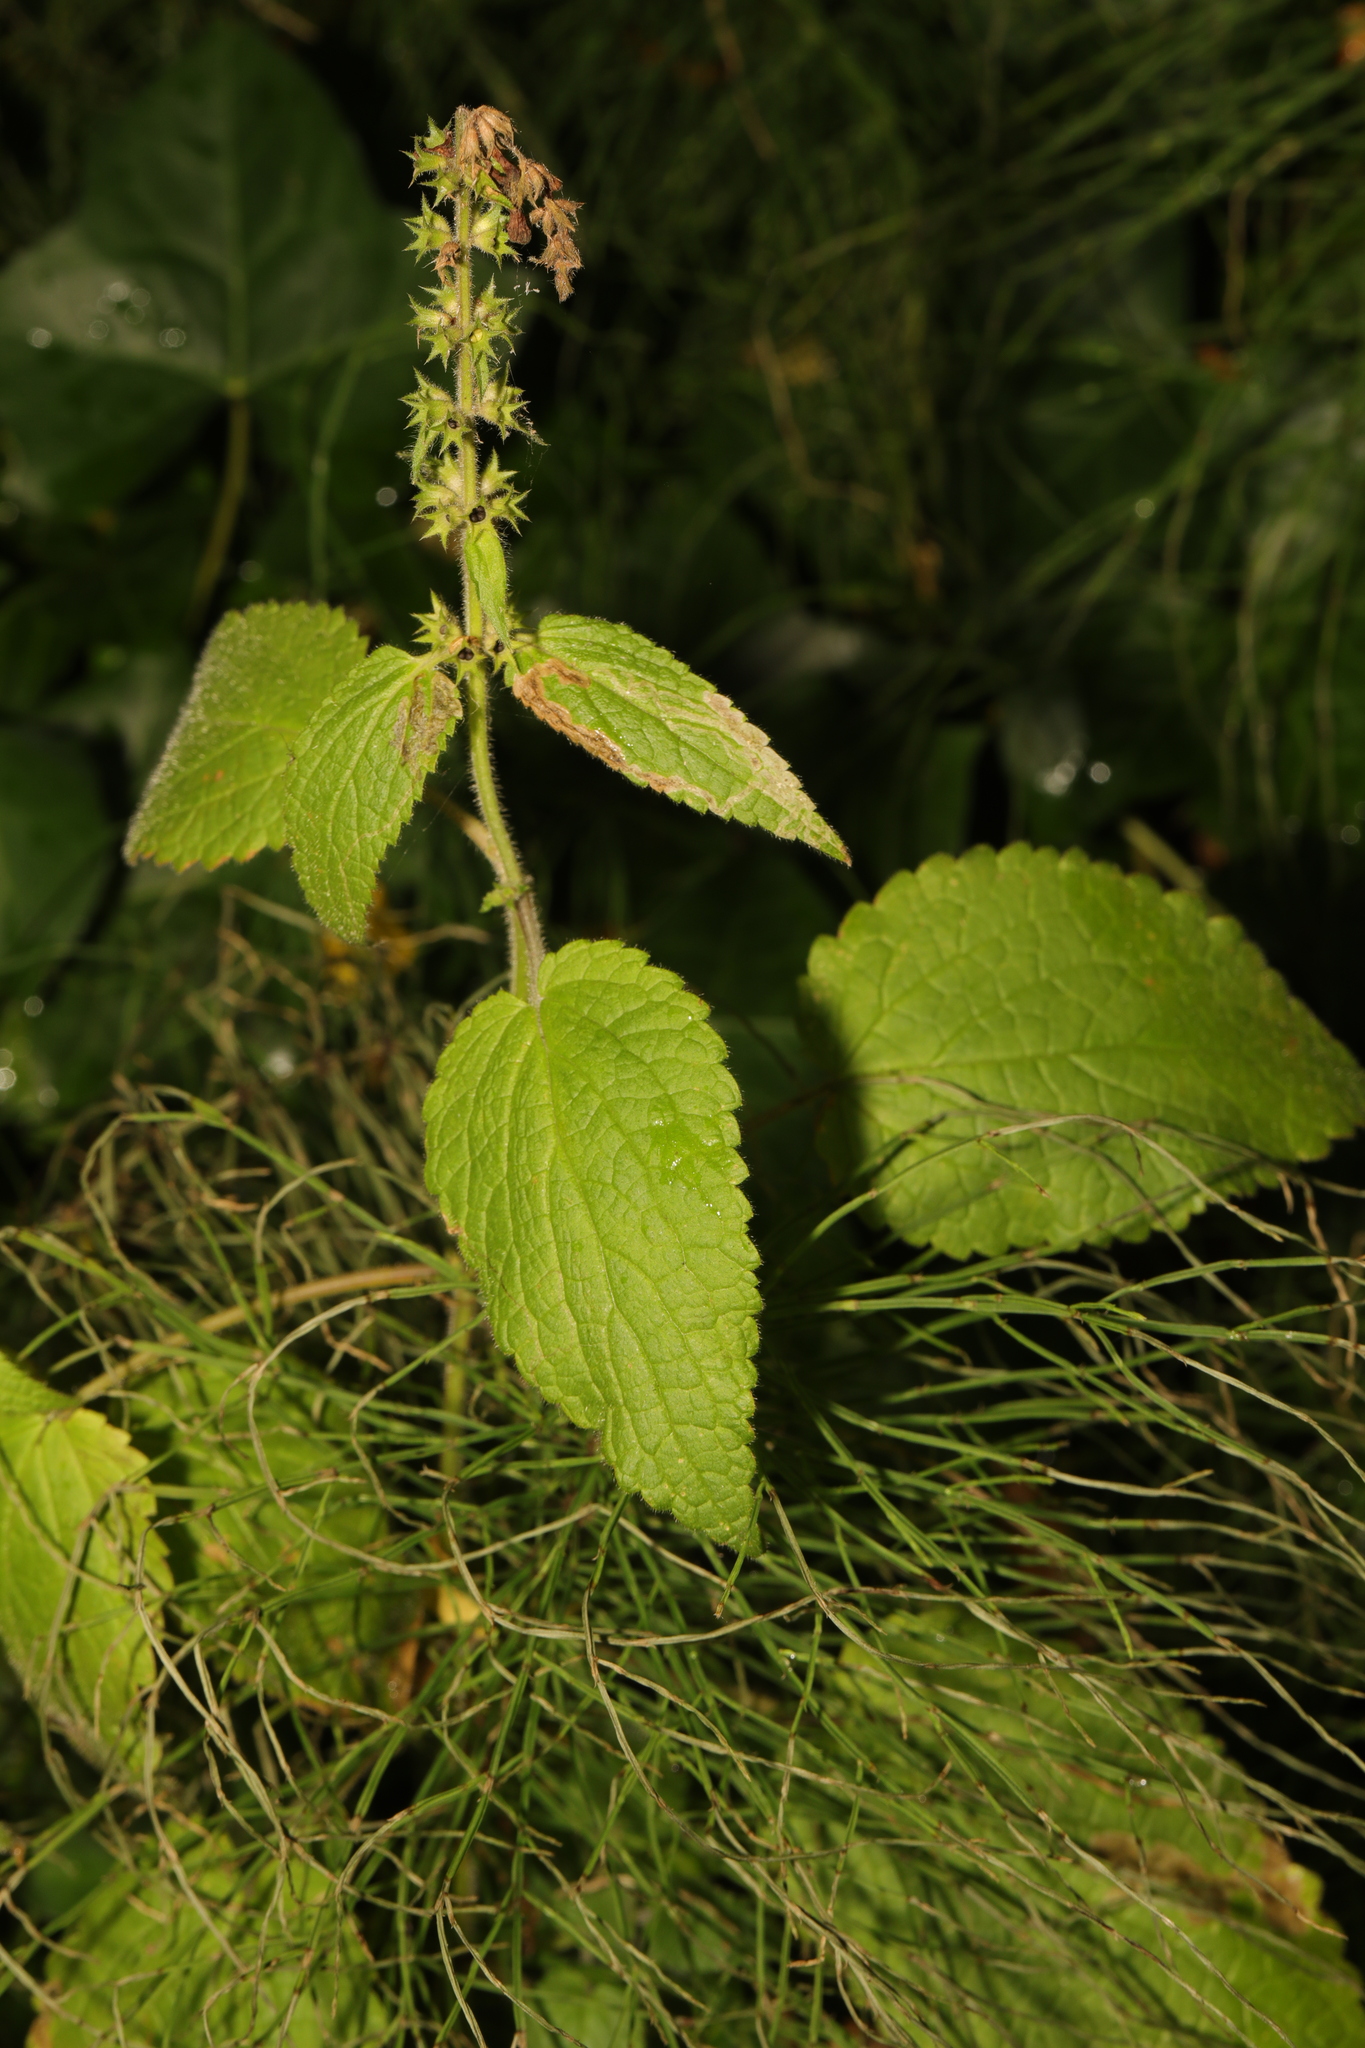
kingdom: Plantae
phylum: Tracheophyta
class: Magnoliopsida
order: Lamiales
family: Lamiaceae
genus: Stachys
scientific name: Stachys sylvatica
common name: Hedge woundwort
